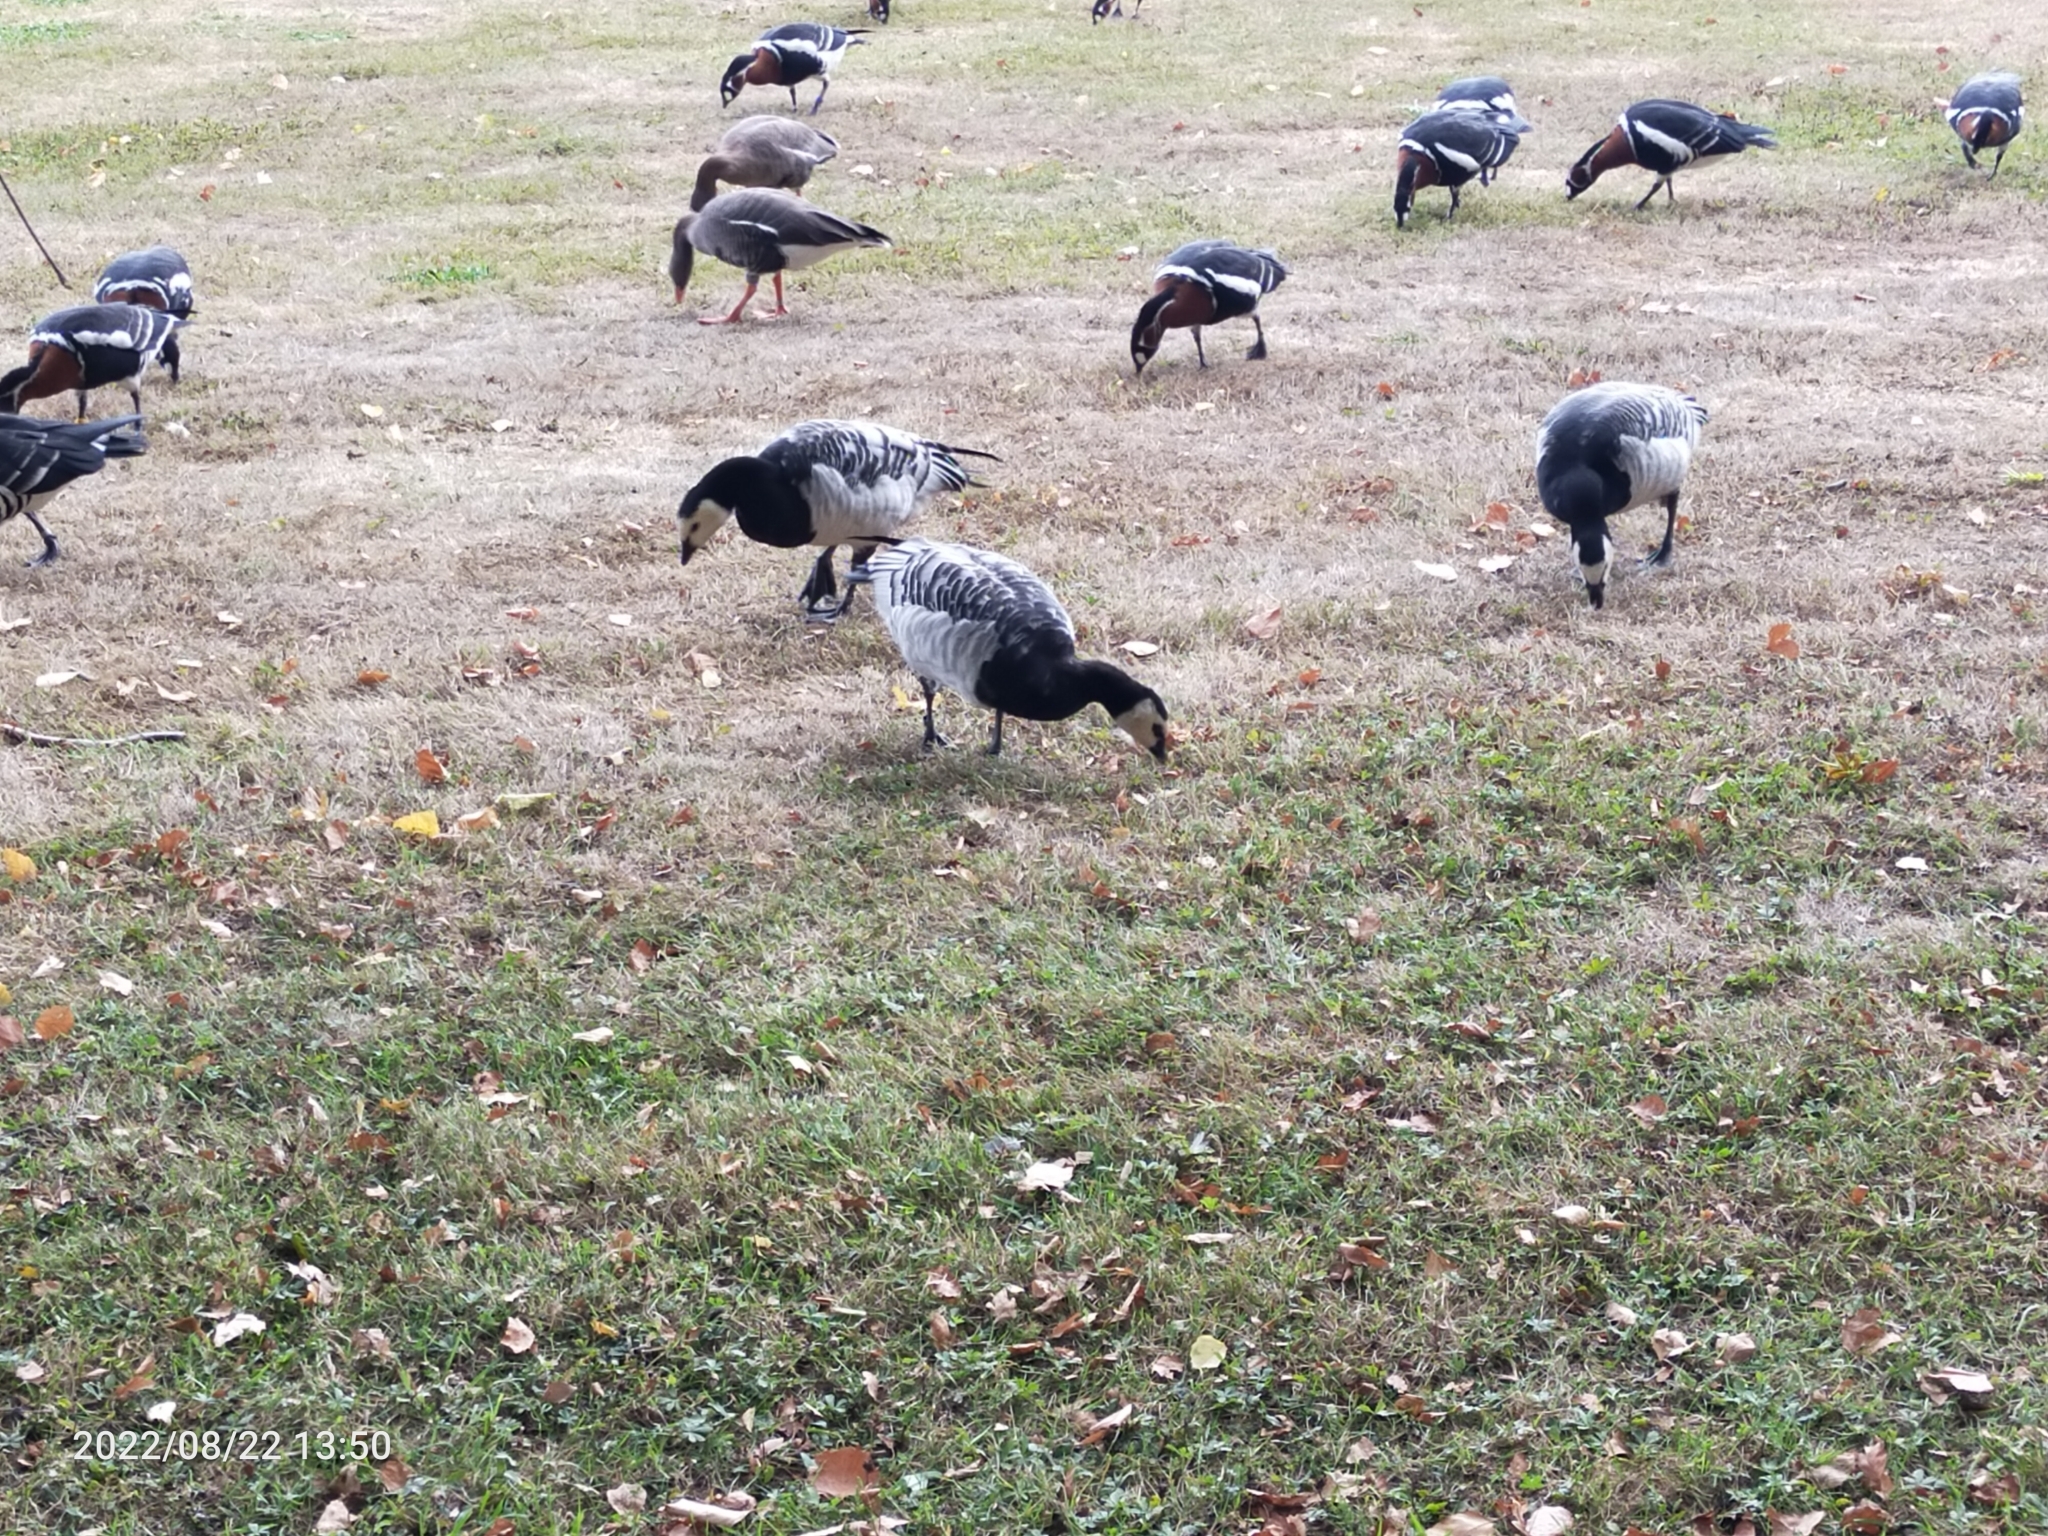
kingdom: Animalia
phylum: Chordata
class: Aves
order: Anseriformes
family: Anatidae
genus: Branta
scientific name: Branta leucopsis
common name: Barnacle goose
